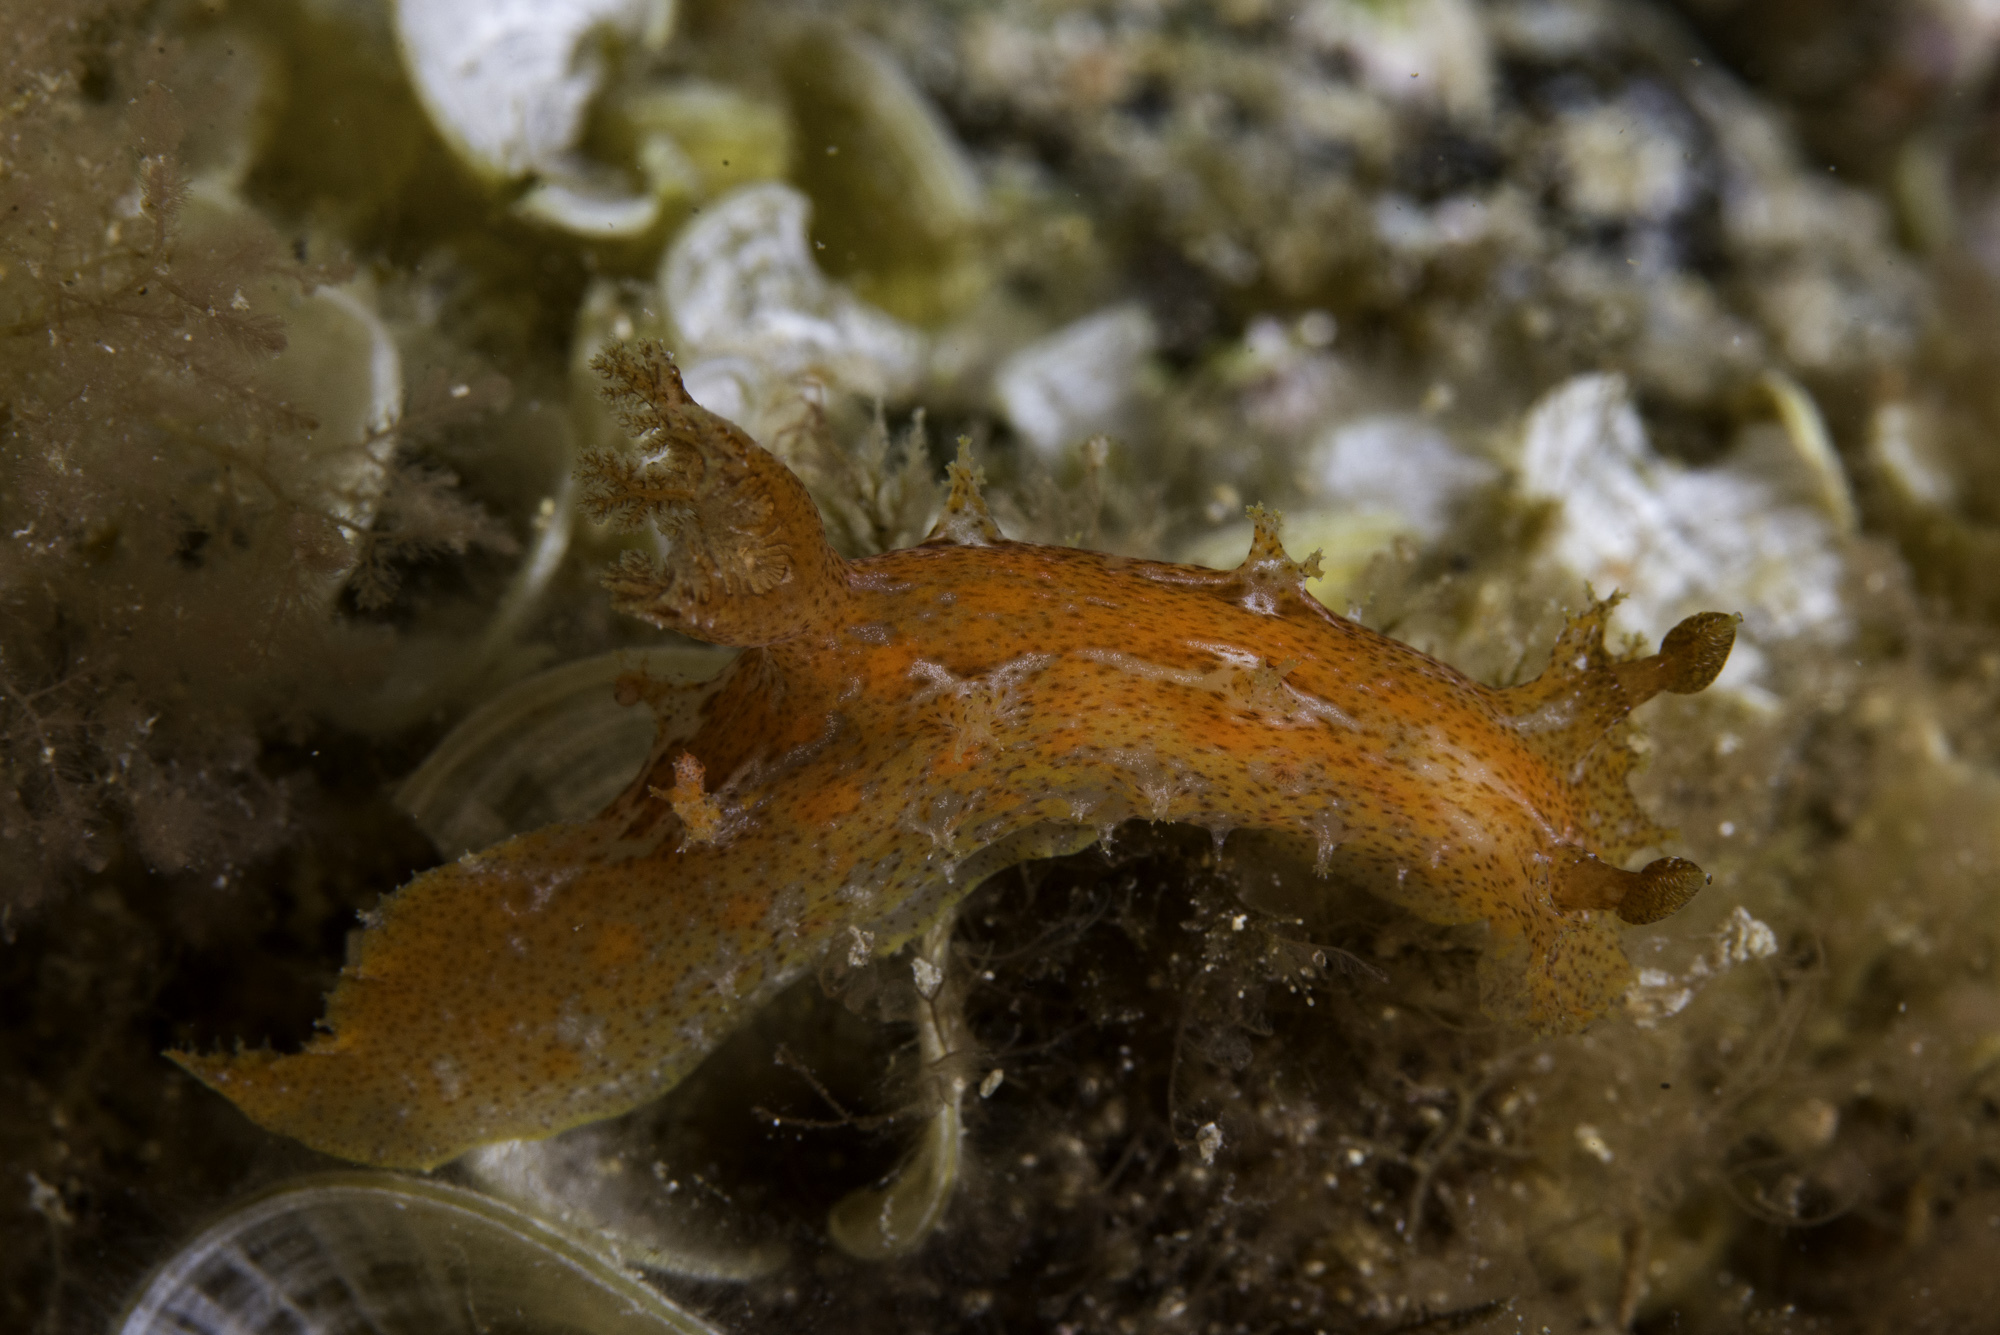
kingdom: Animalia
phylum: Mollusca
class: Gastropoda
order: Nudibranchia
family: Polyceridae
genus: Plocamopherus
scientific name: Plocamopherus maderae
